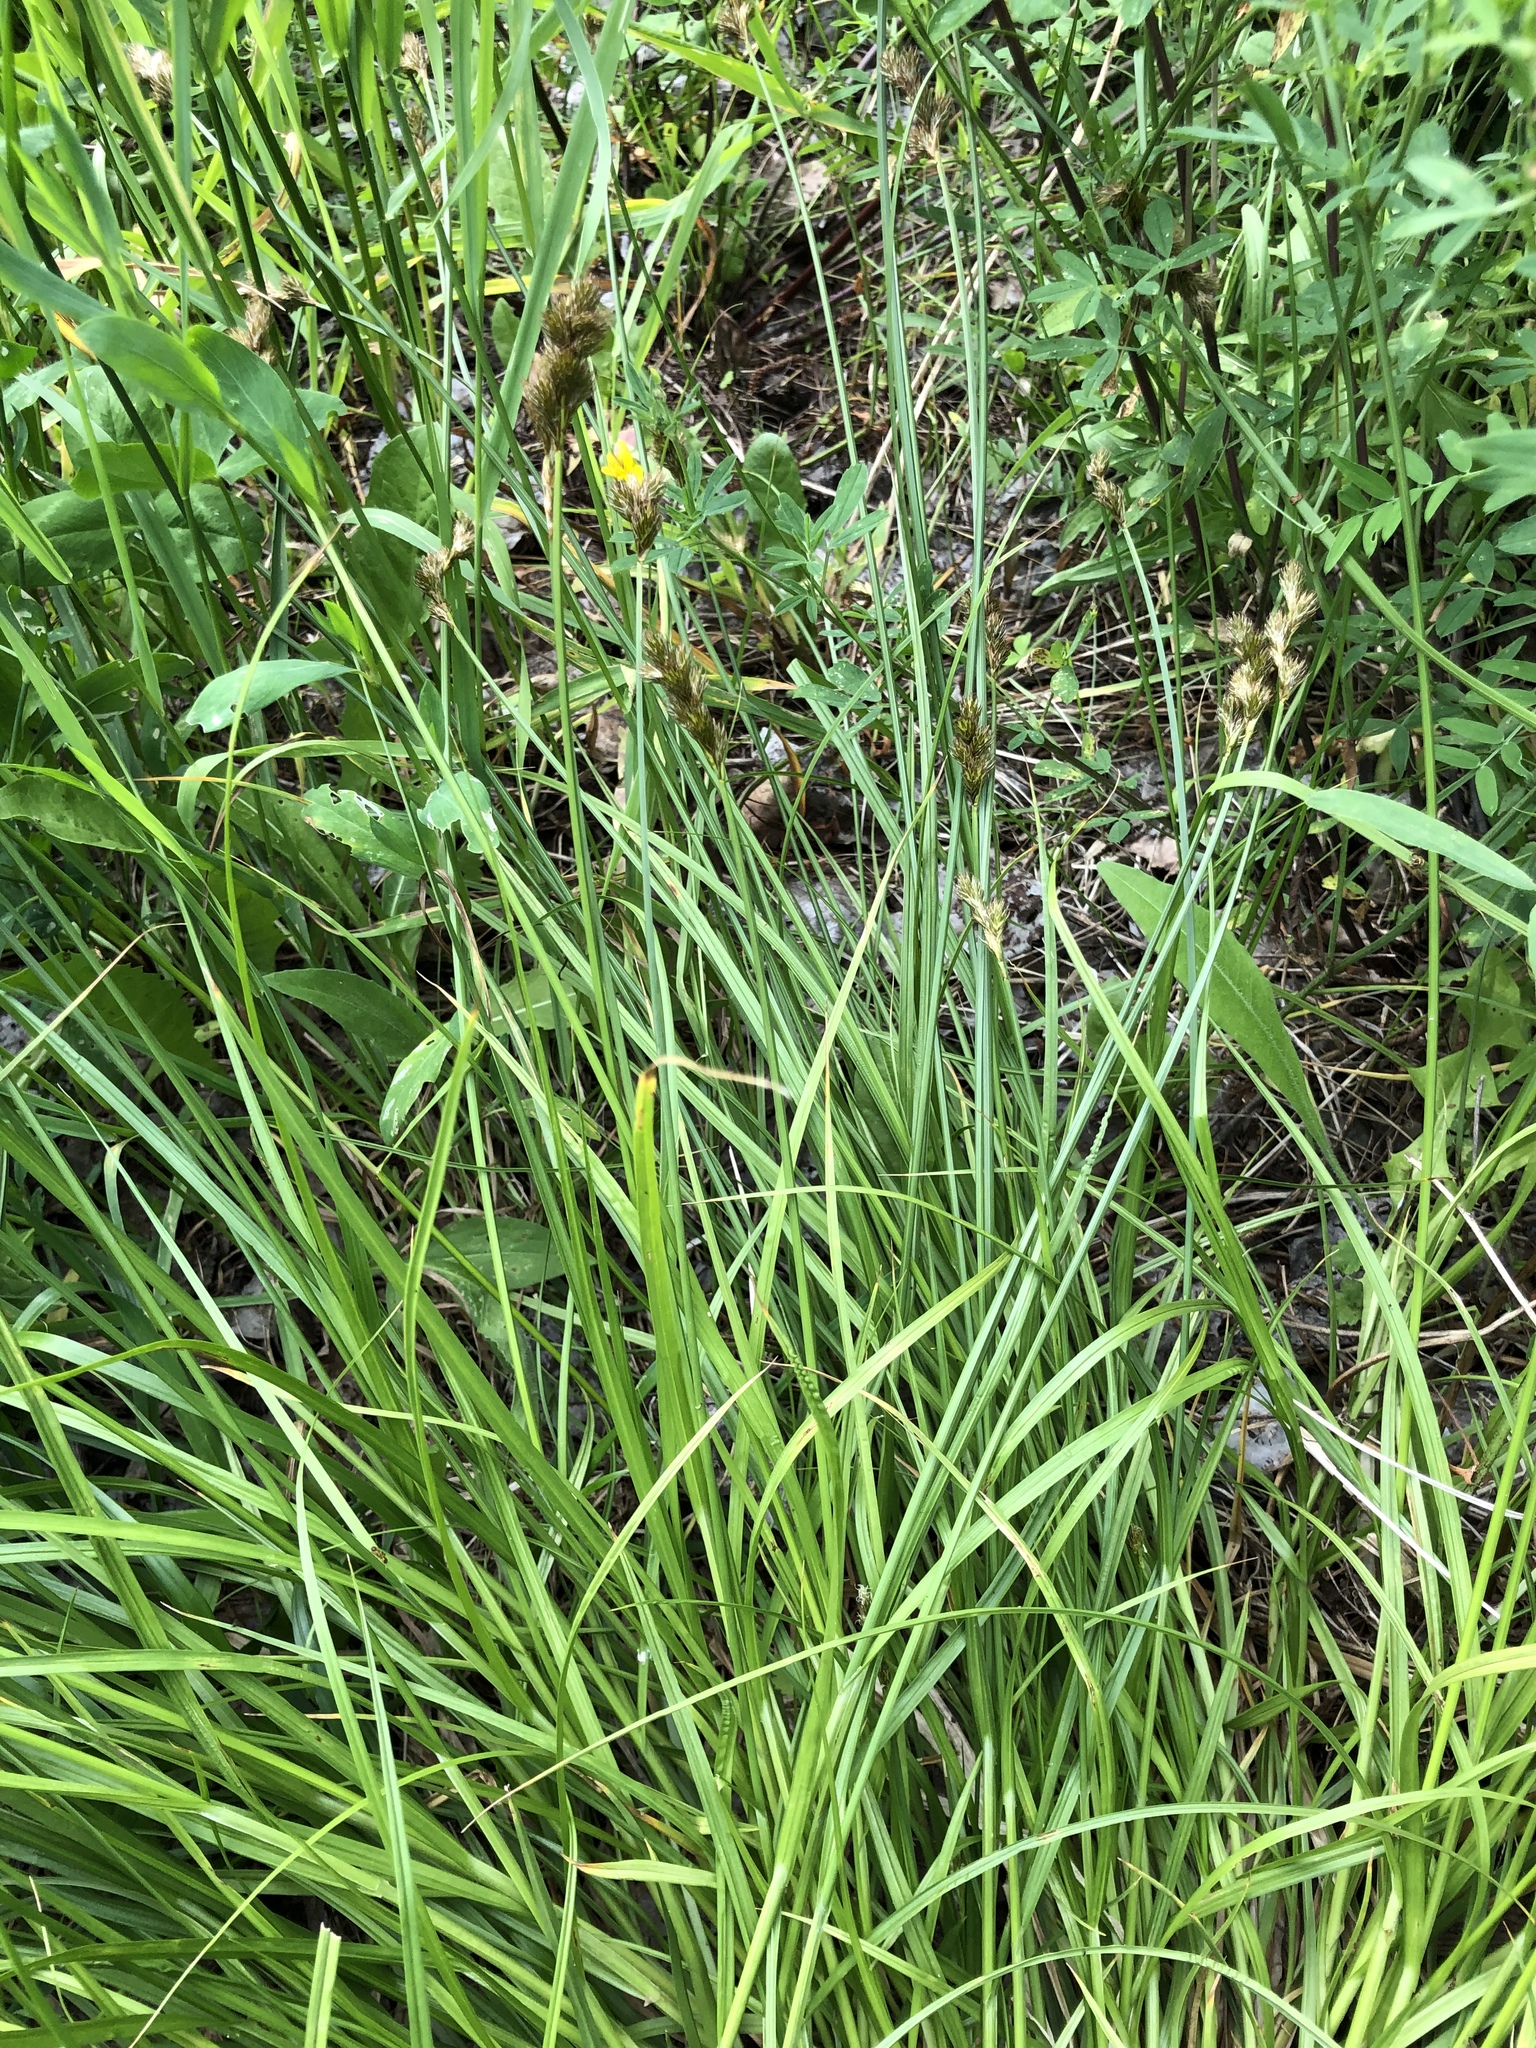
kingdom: Plantae
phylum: Tracheophyta
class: Liliopsida
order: Poales
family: Cyperaceae
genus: Carex
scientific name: Carex leporina
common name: Oval sedge
